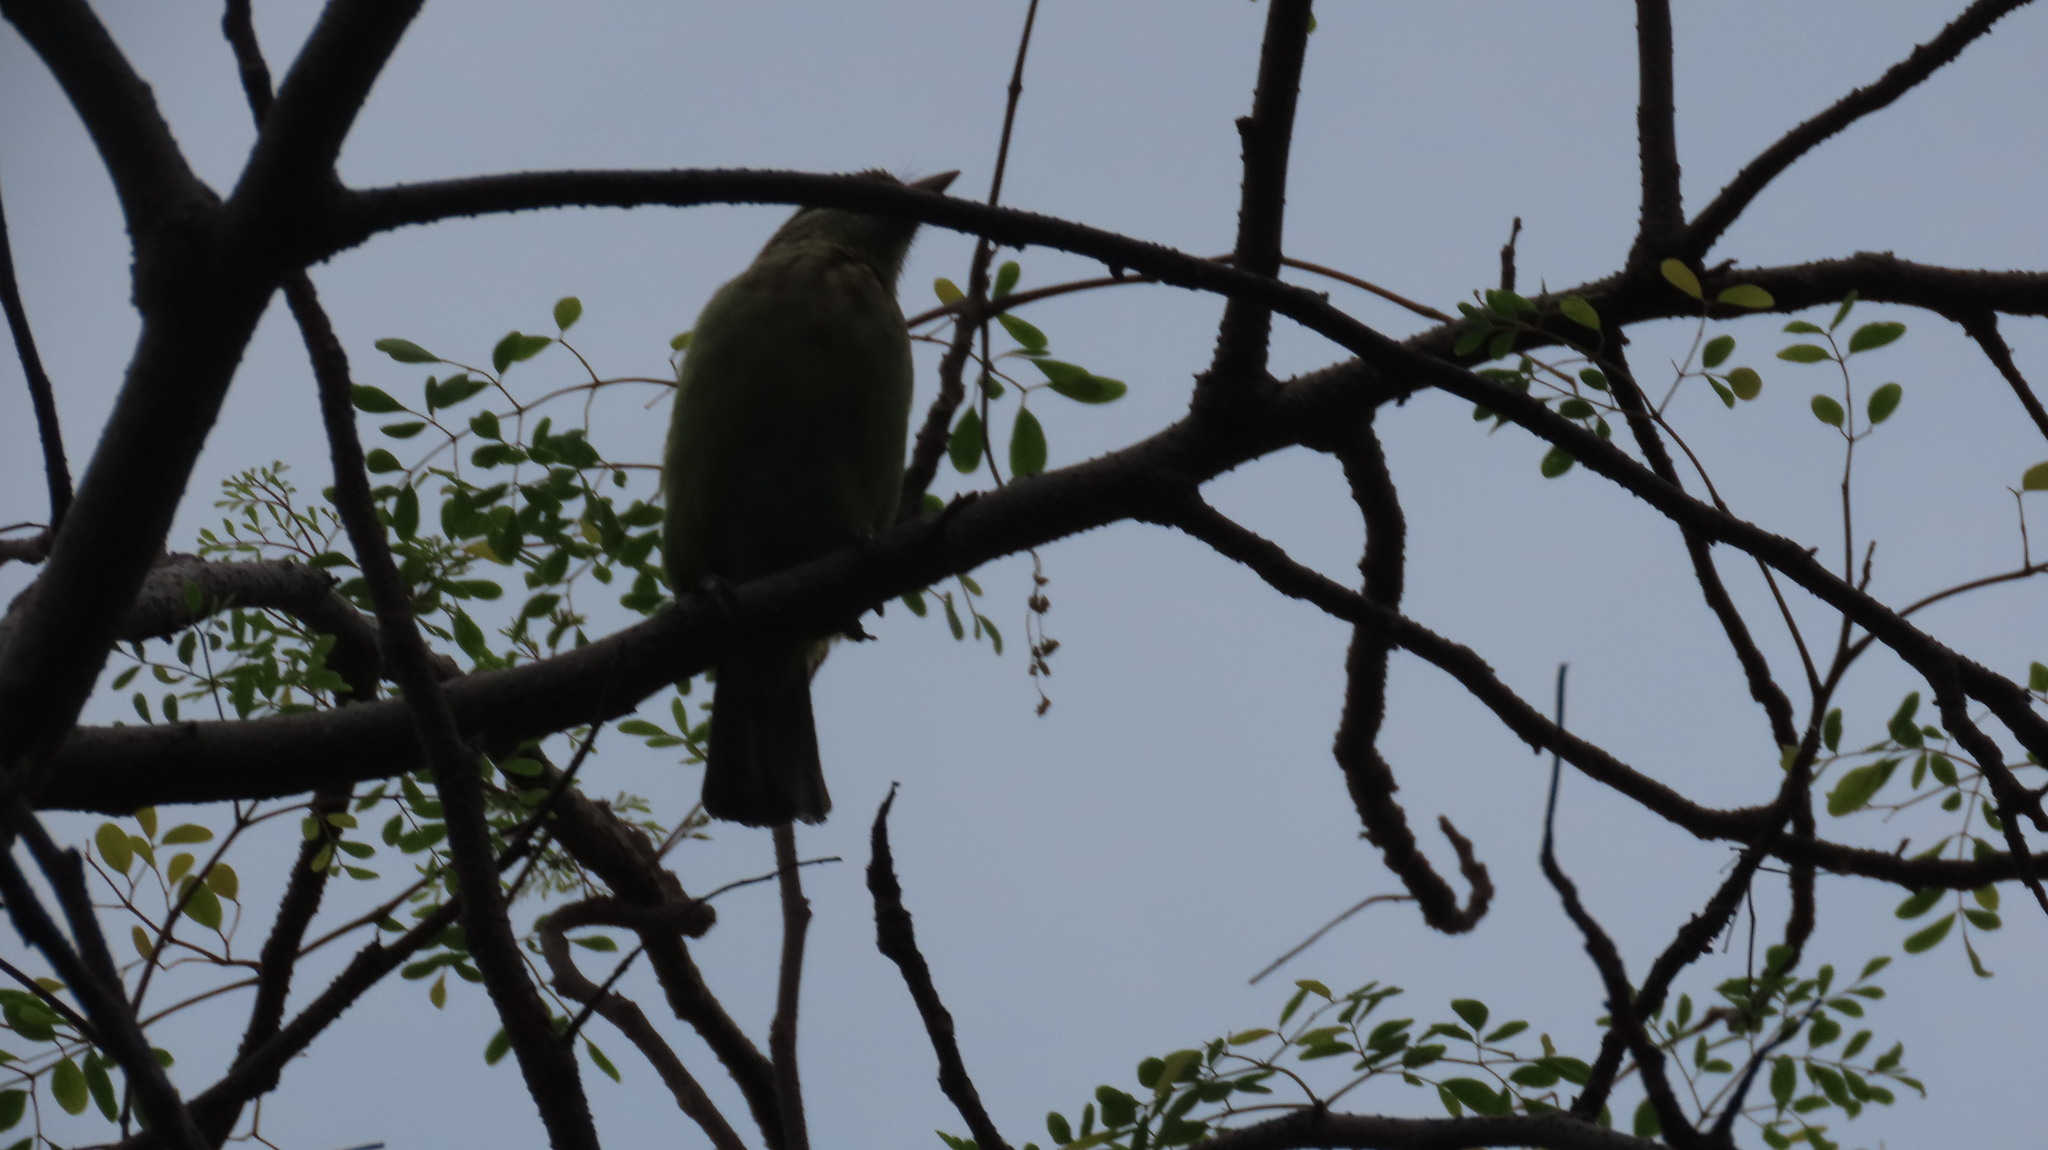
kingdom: Animalia
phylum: Chordata
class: Aves
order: Piciformes
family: Megalaimidae
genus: Psilopogon
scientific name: Psilopogon viridis
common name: White-cheeked barbet
